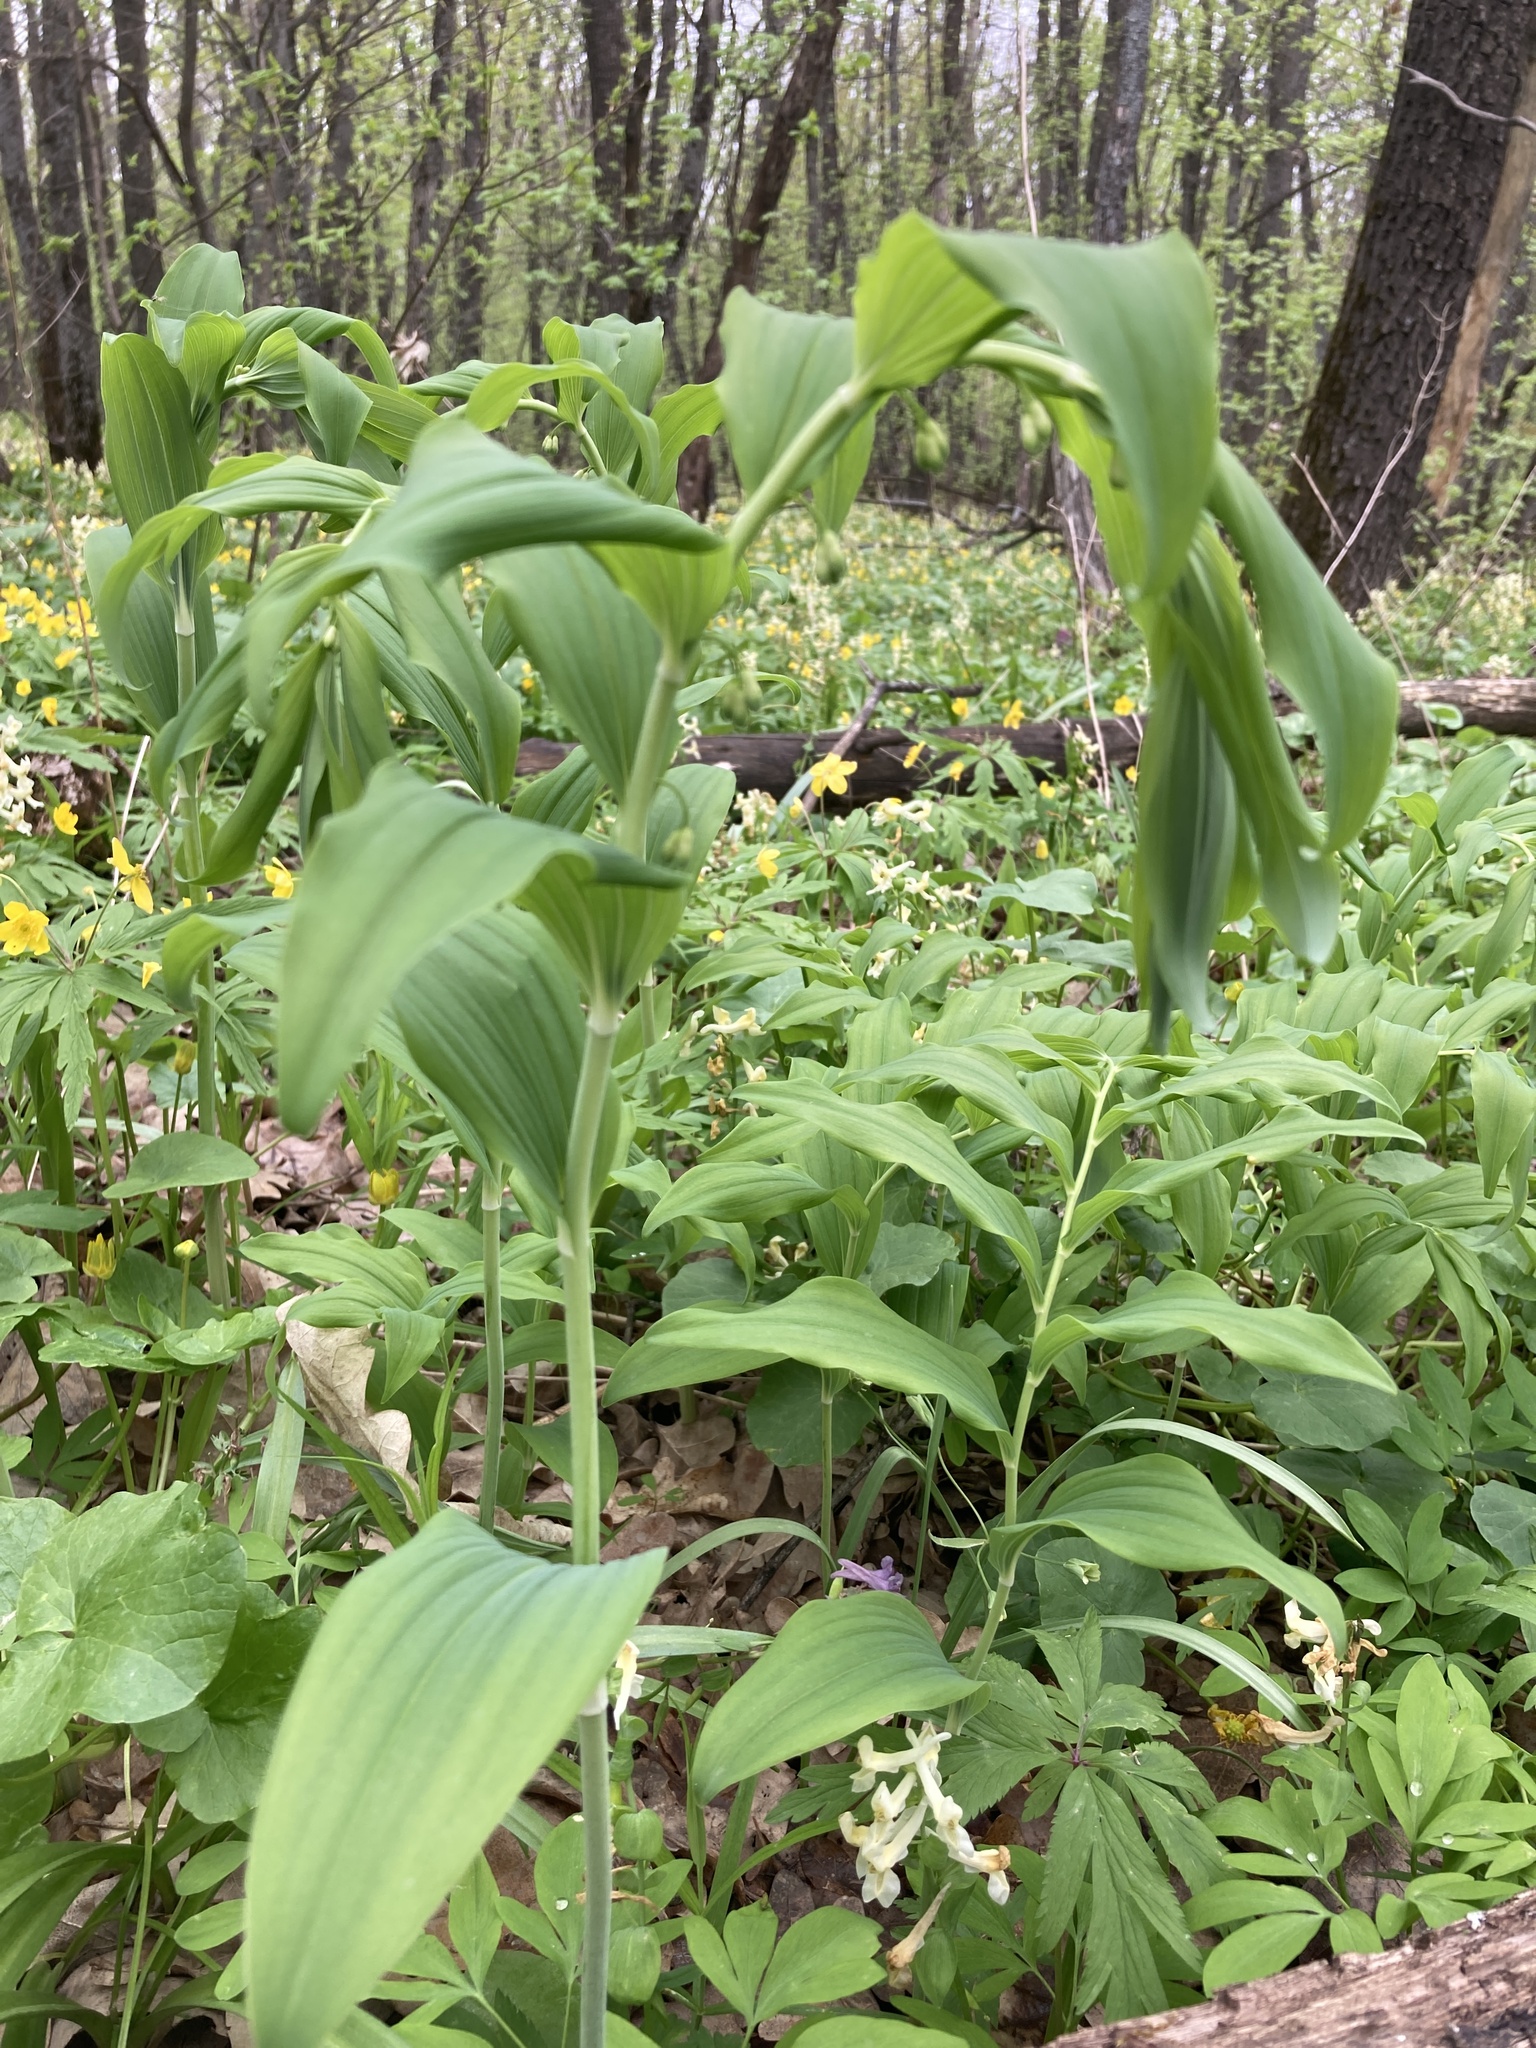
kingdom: Plantae
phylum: Tracheophyta
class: Liliopsida
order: Asparagales
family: Asparagaceae
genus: Polygonatum
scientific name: Polygonatum multiflorum
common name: Solomon's-seal
